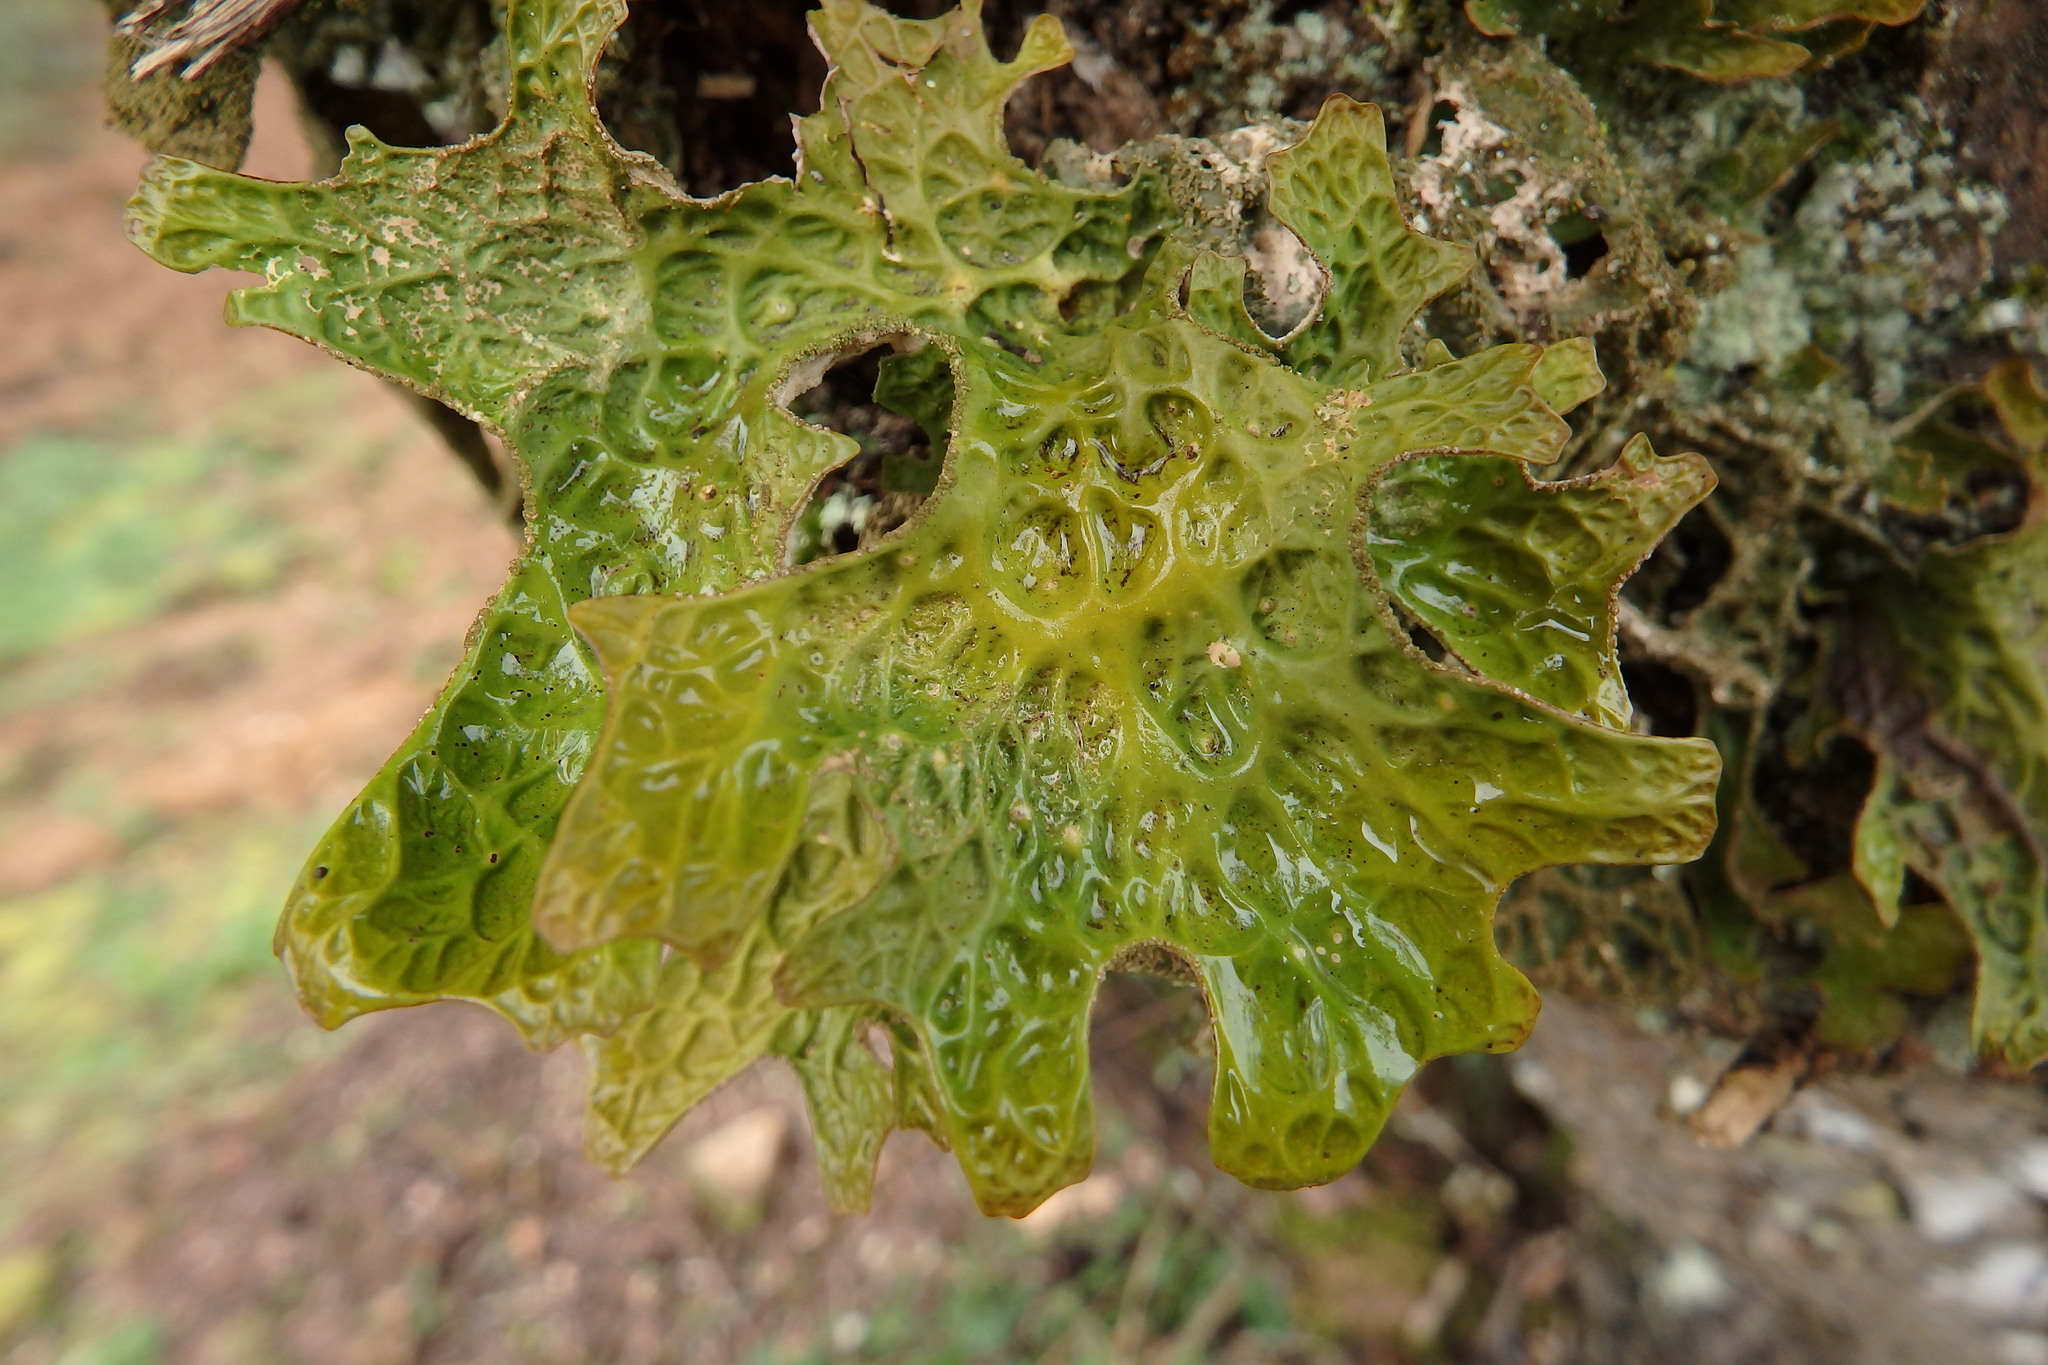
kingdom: Fungi
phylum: Ascomycota
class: Lecanoromycetes
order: Peltigerales
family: Lobariaceae
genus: Lobaria
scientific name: Lobaria pulmonaria
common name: Lungwort
